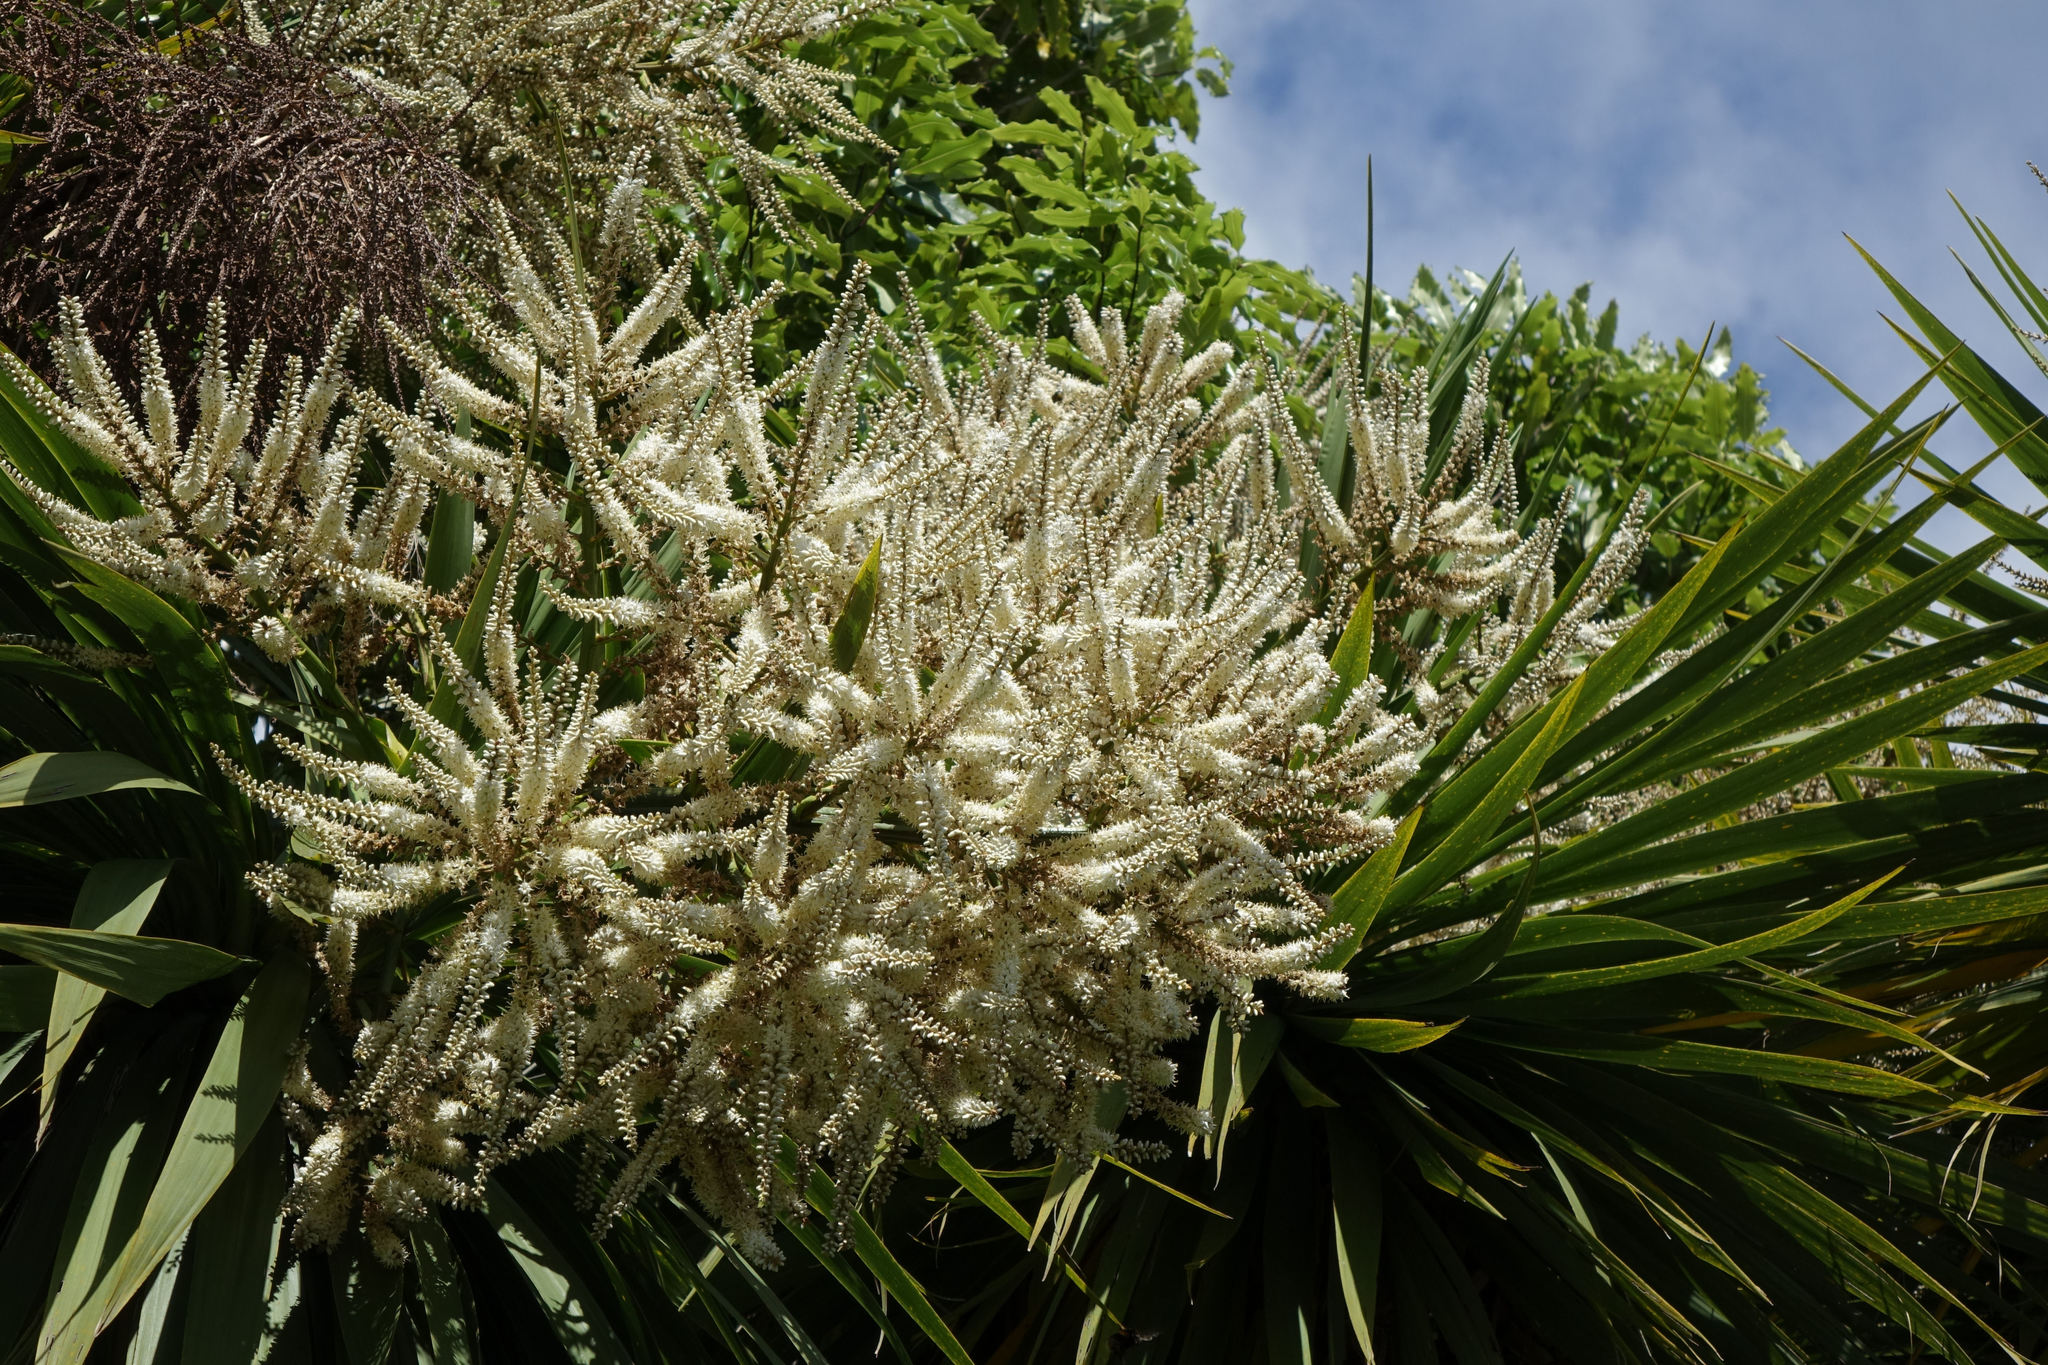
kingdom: Plantae
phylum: Tracheophyta
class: Liliopsida
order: Asparagales
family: Asparagaceae
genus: Cordyline
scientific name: Cordyline australis
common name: Cabbage-palm
